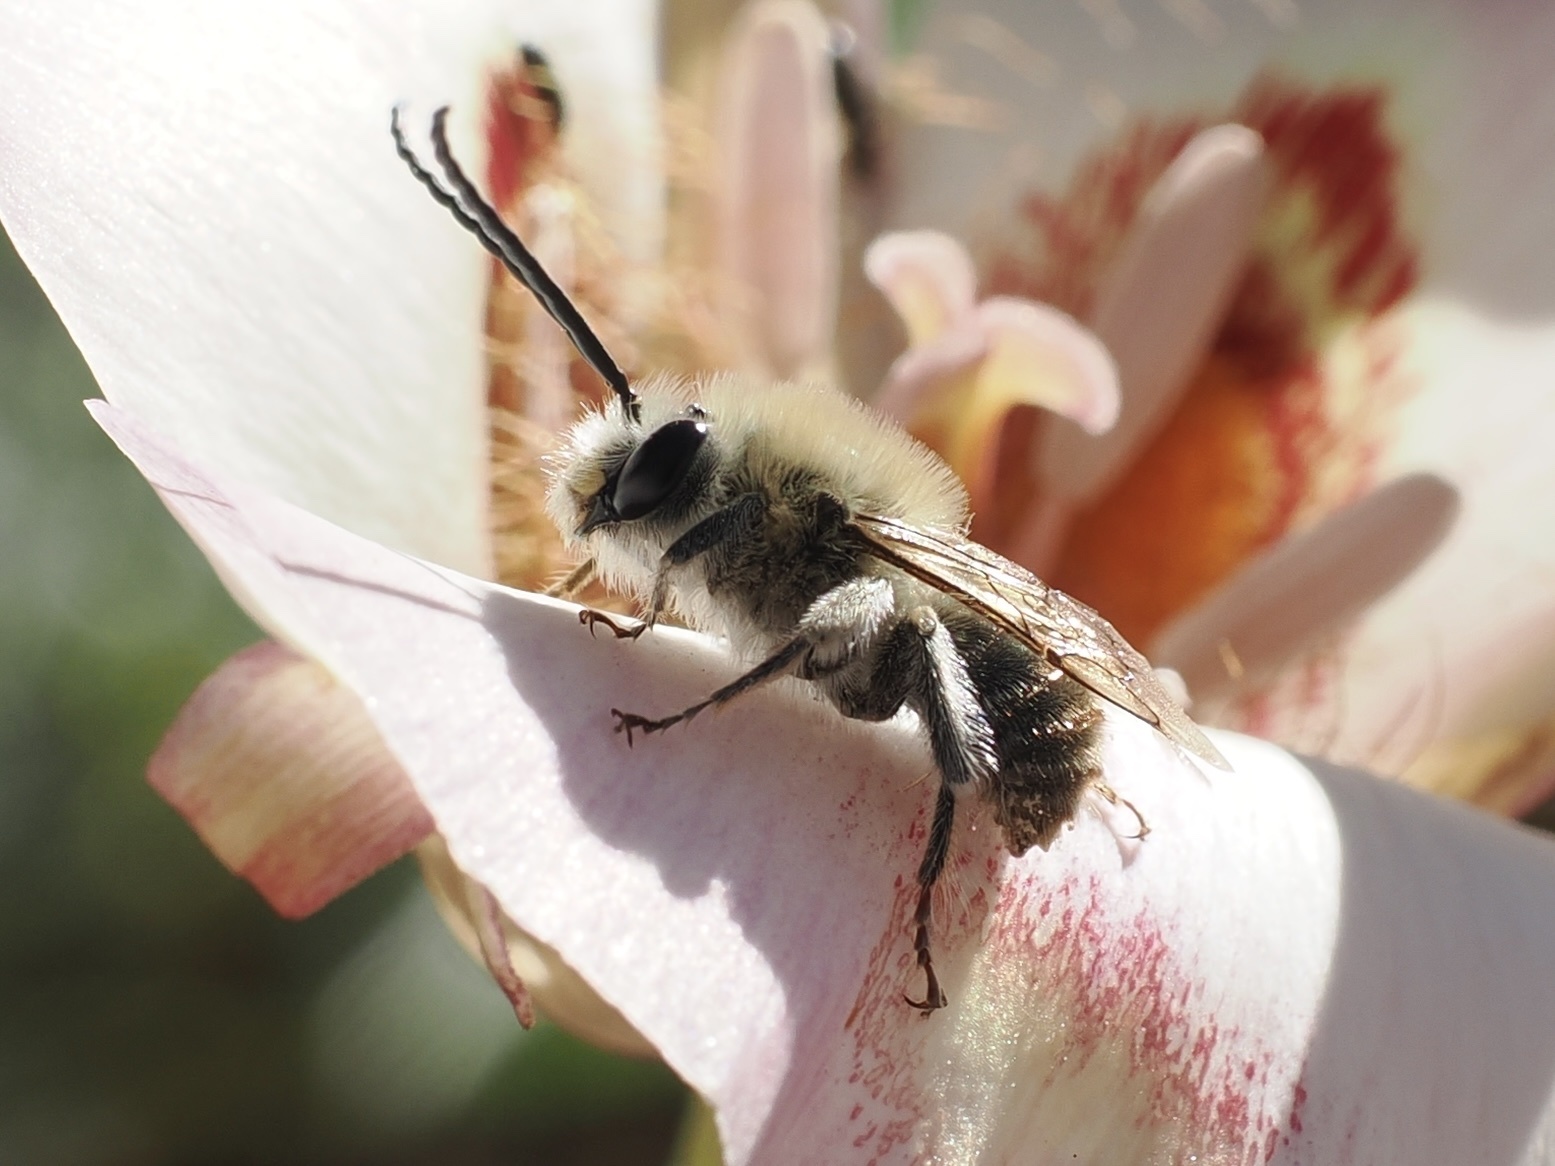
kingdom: Animalia
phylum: Arthropoda
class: Insecta
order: Hymenoptera
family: Apidae
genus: Tetraloniella
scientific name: Tetraloniella davidsoni
